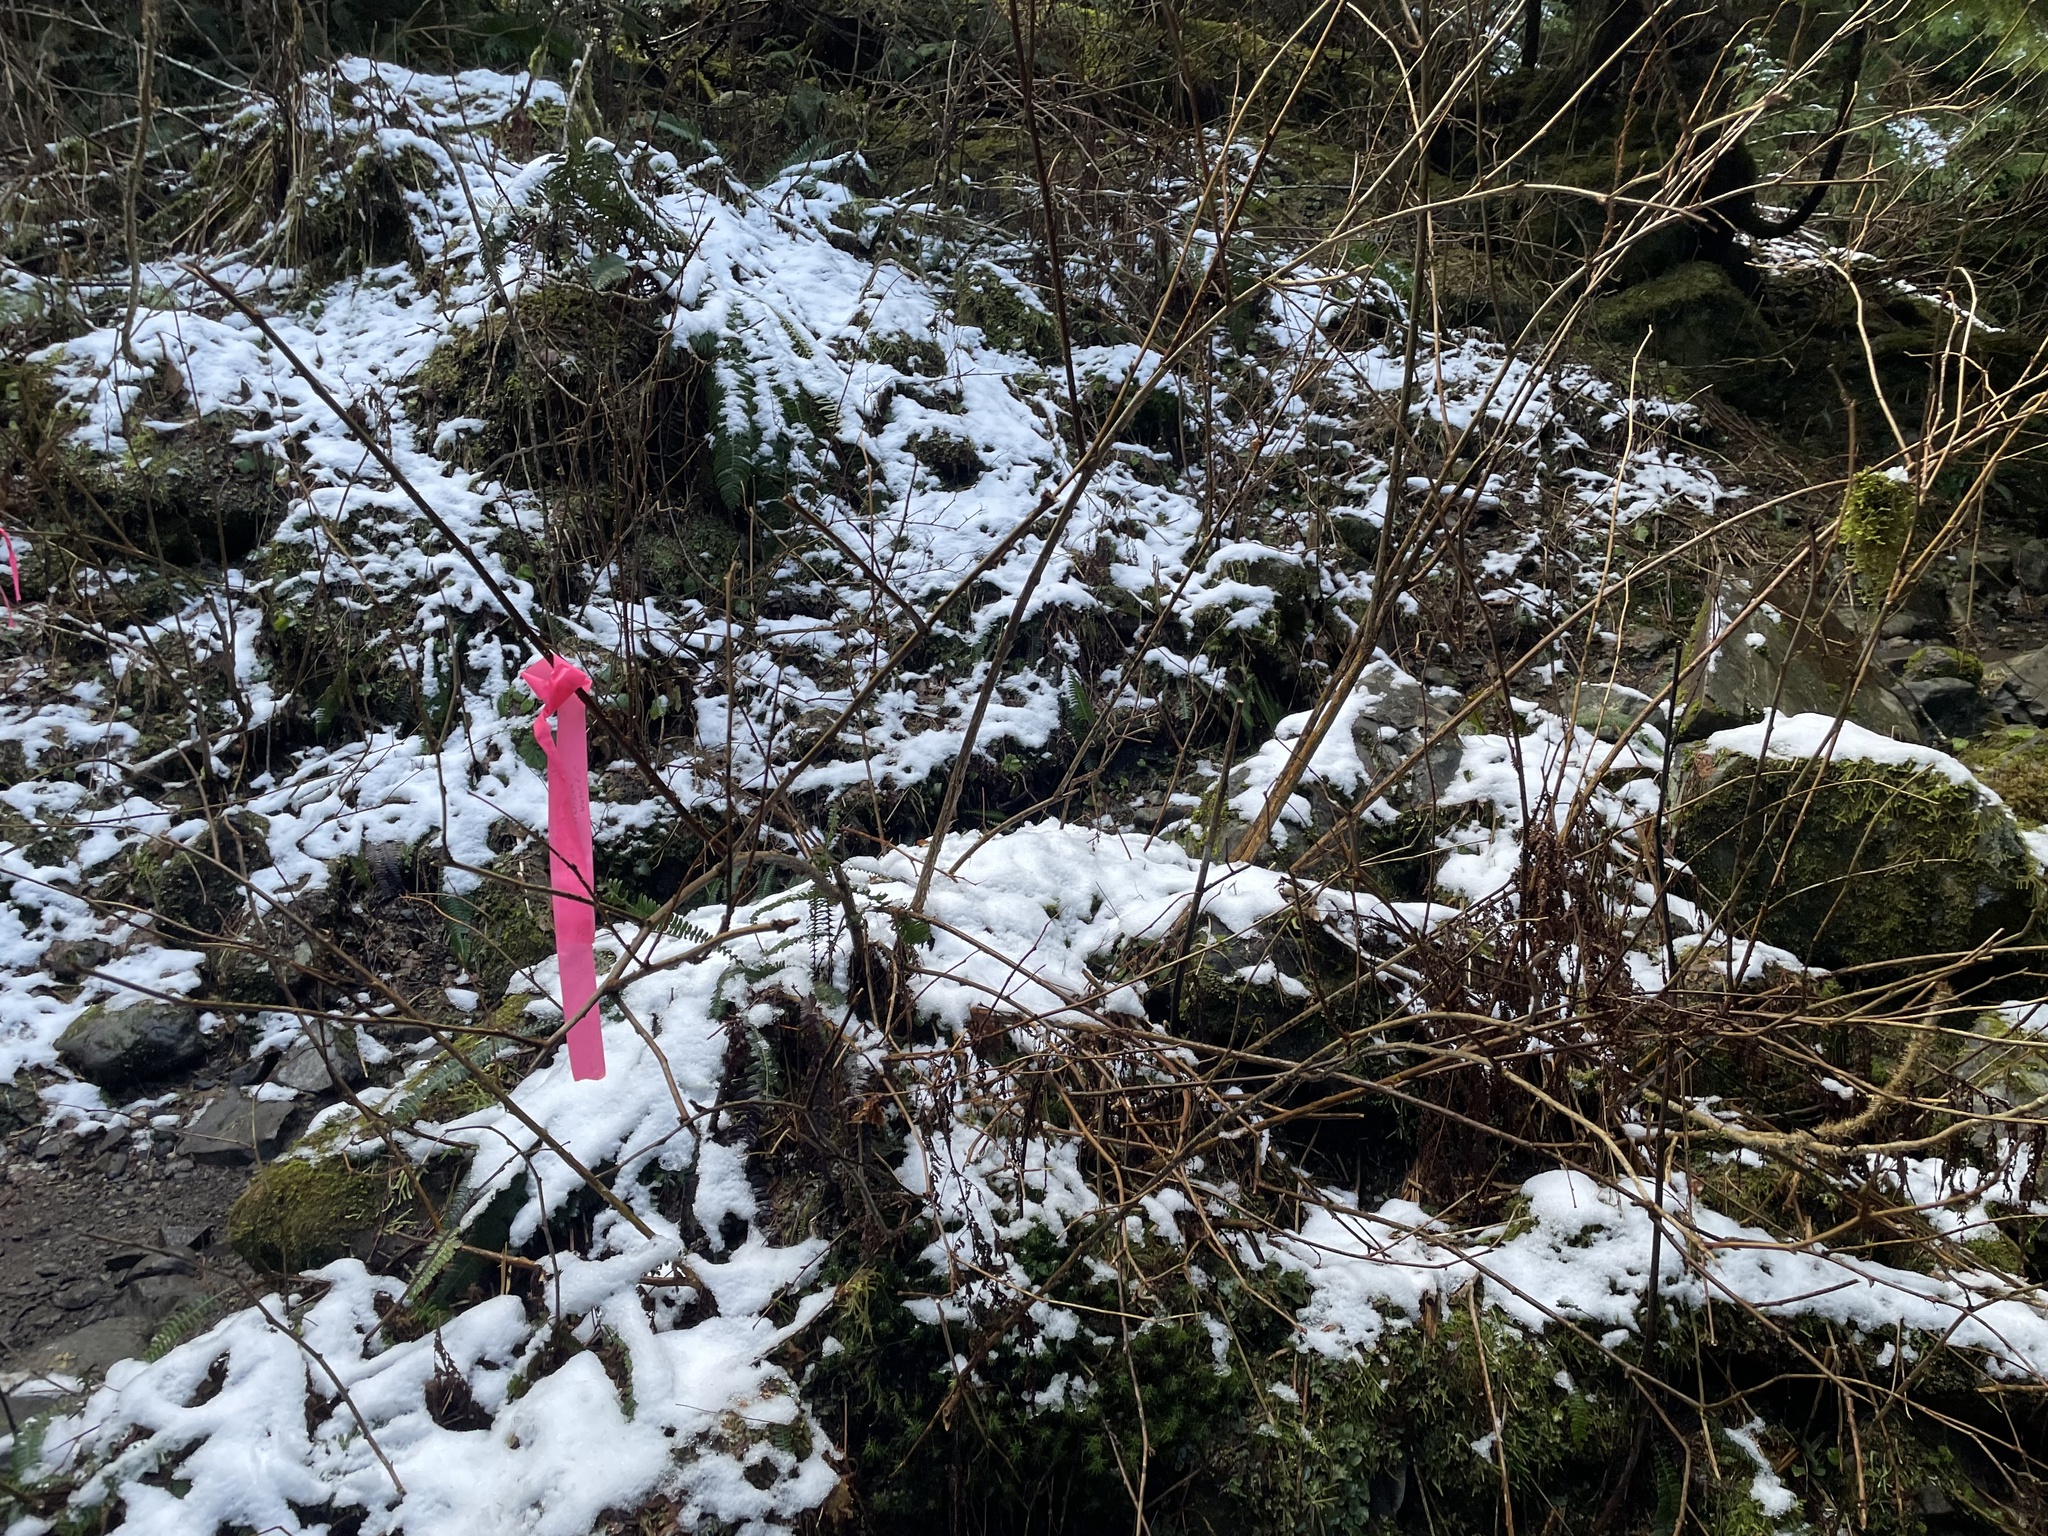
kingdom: Plantae
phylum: Tracheophyta
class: Magnoliopsida
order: Rosales
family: Rosaceae
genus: Rubus
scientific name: Rubus spectabilis
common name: Salmonberry
